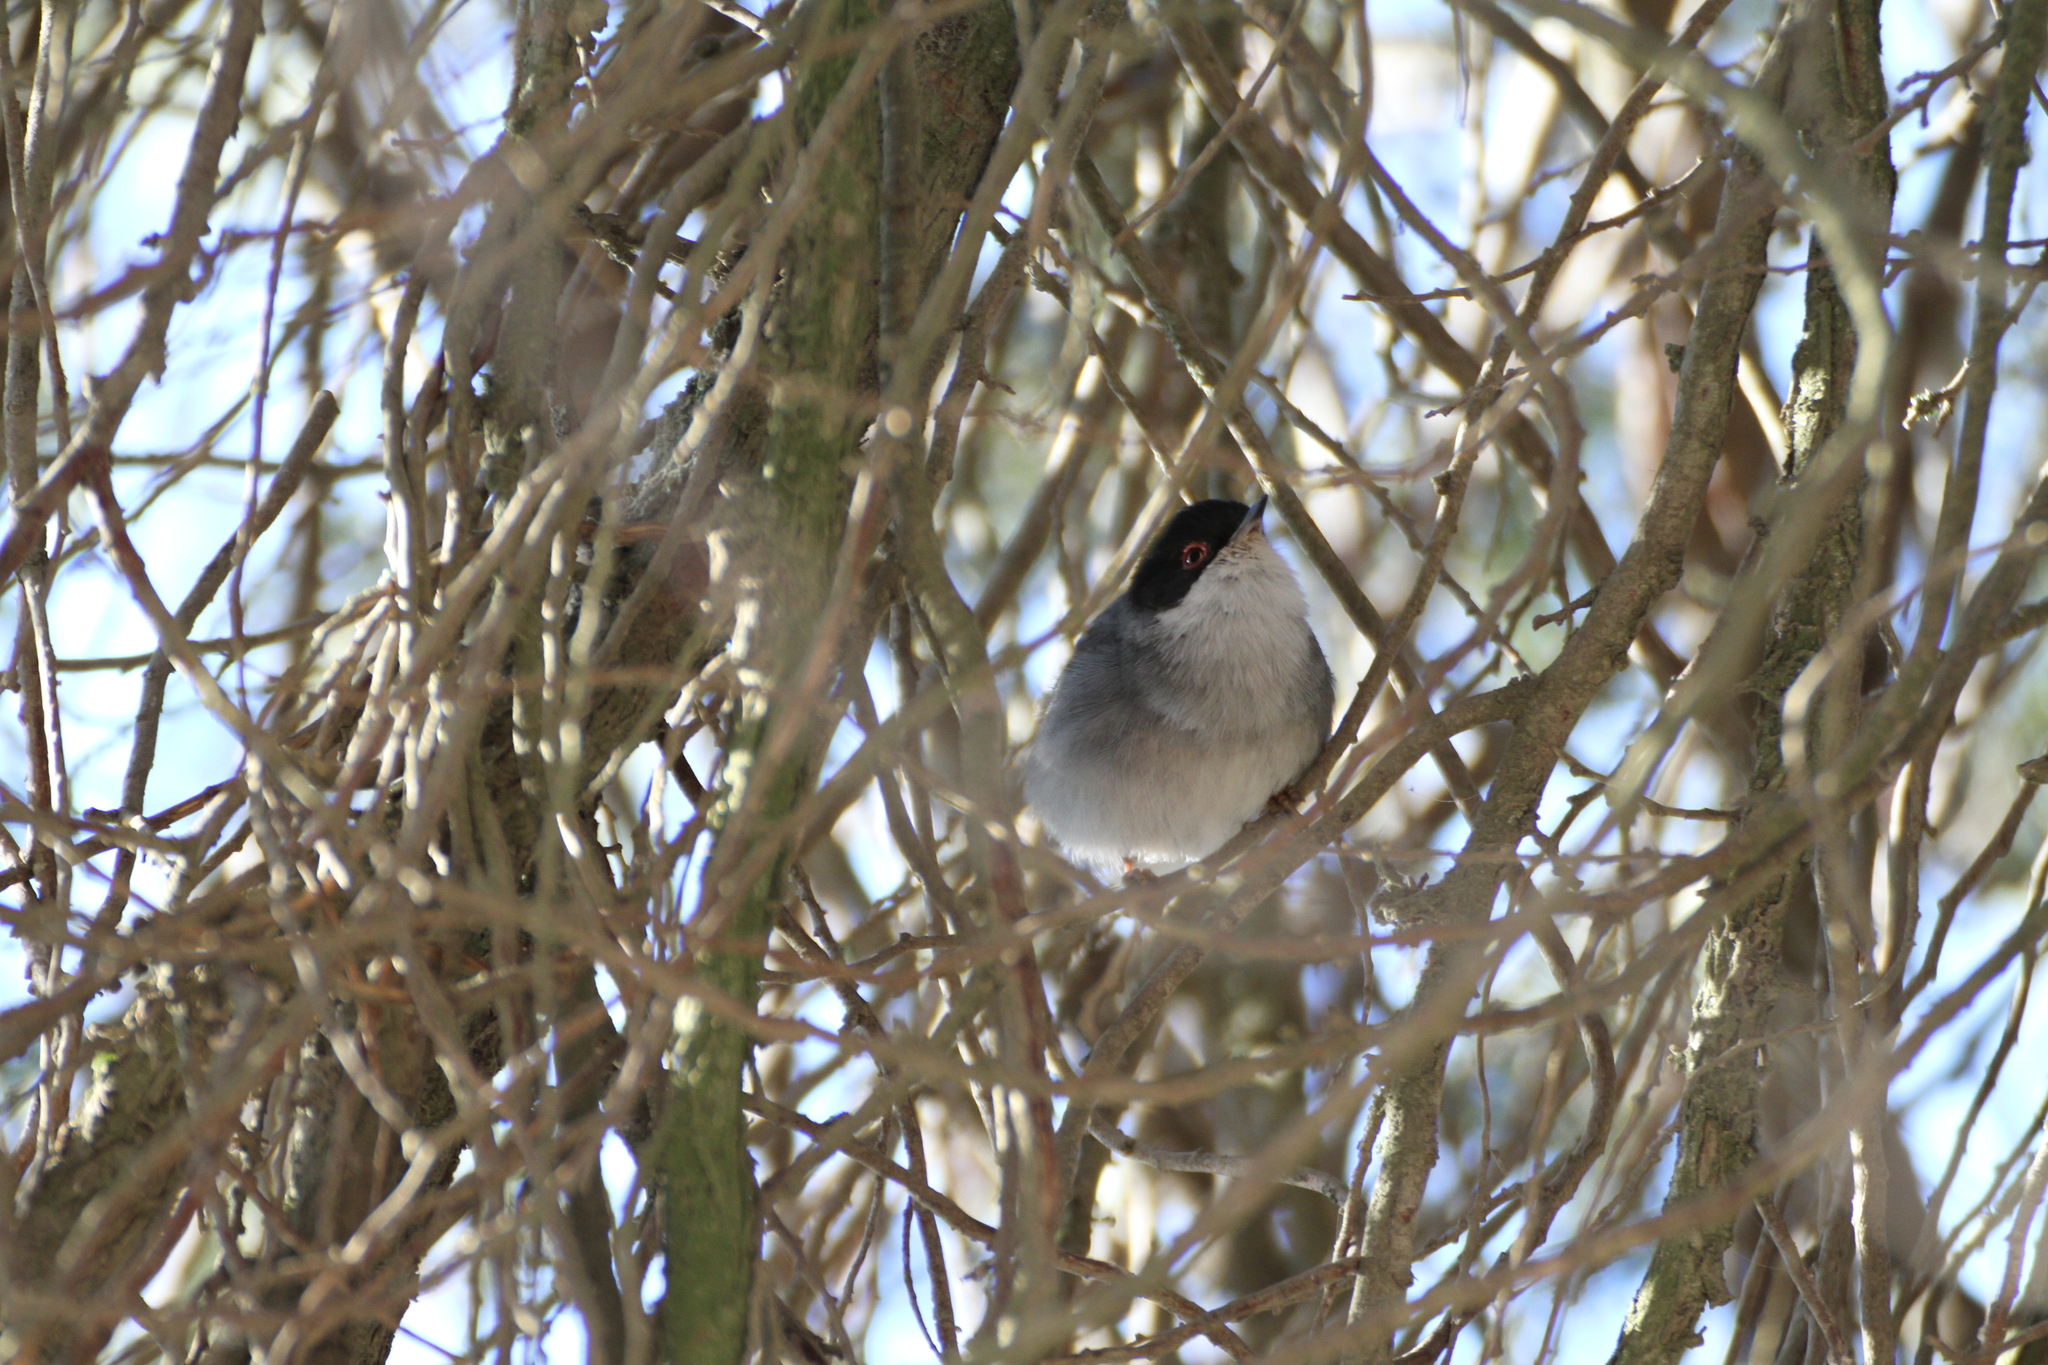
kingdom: Animalia
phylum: Chordata
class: Aves
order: Passeriformes
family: Sylviidae
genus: Curruca
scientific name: Curruca melanocephala
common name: Sardinian warbler
